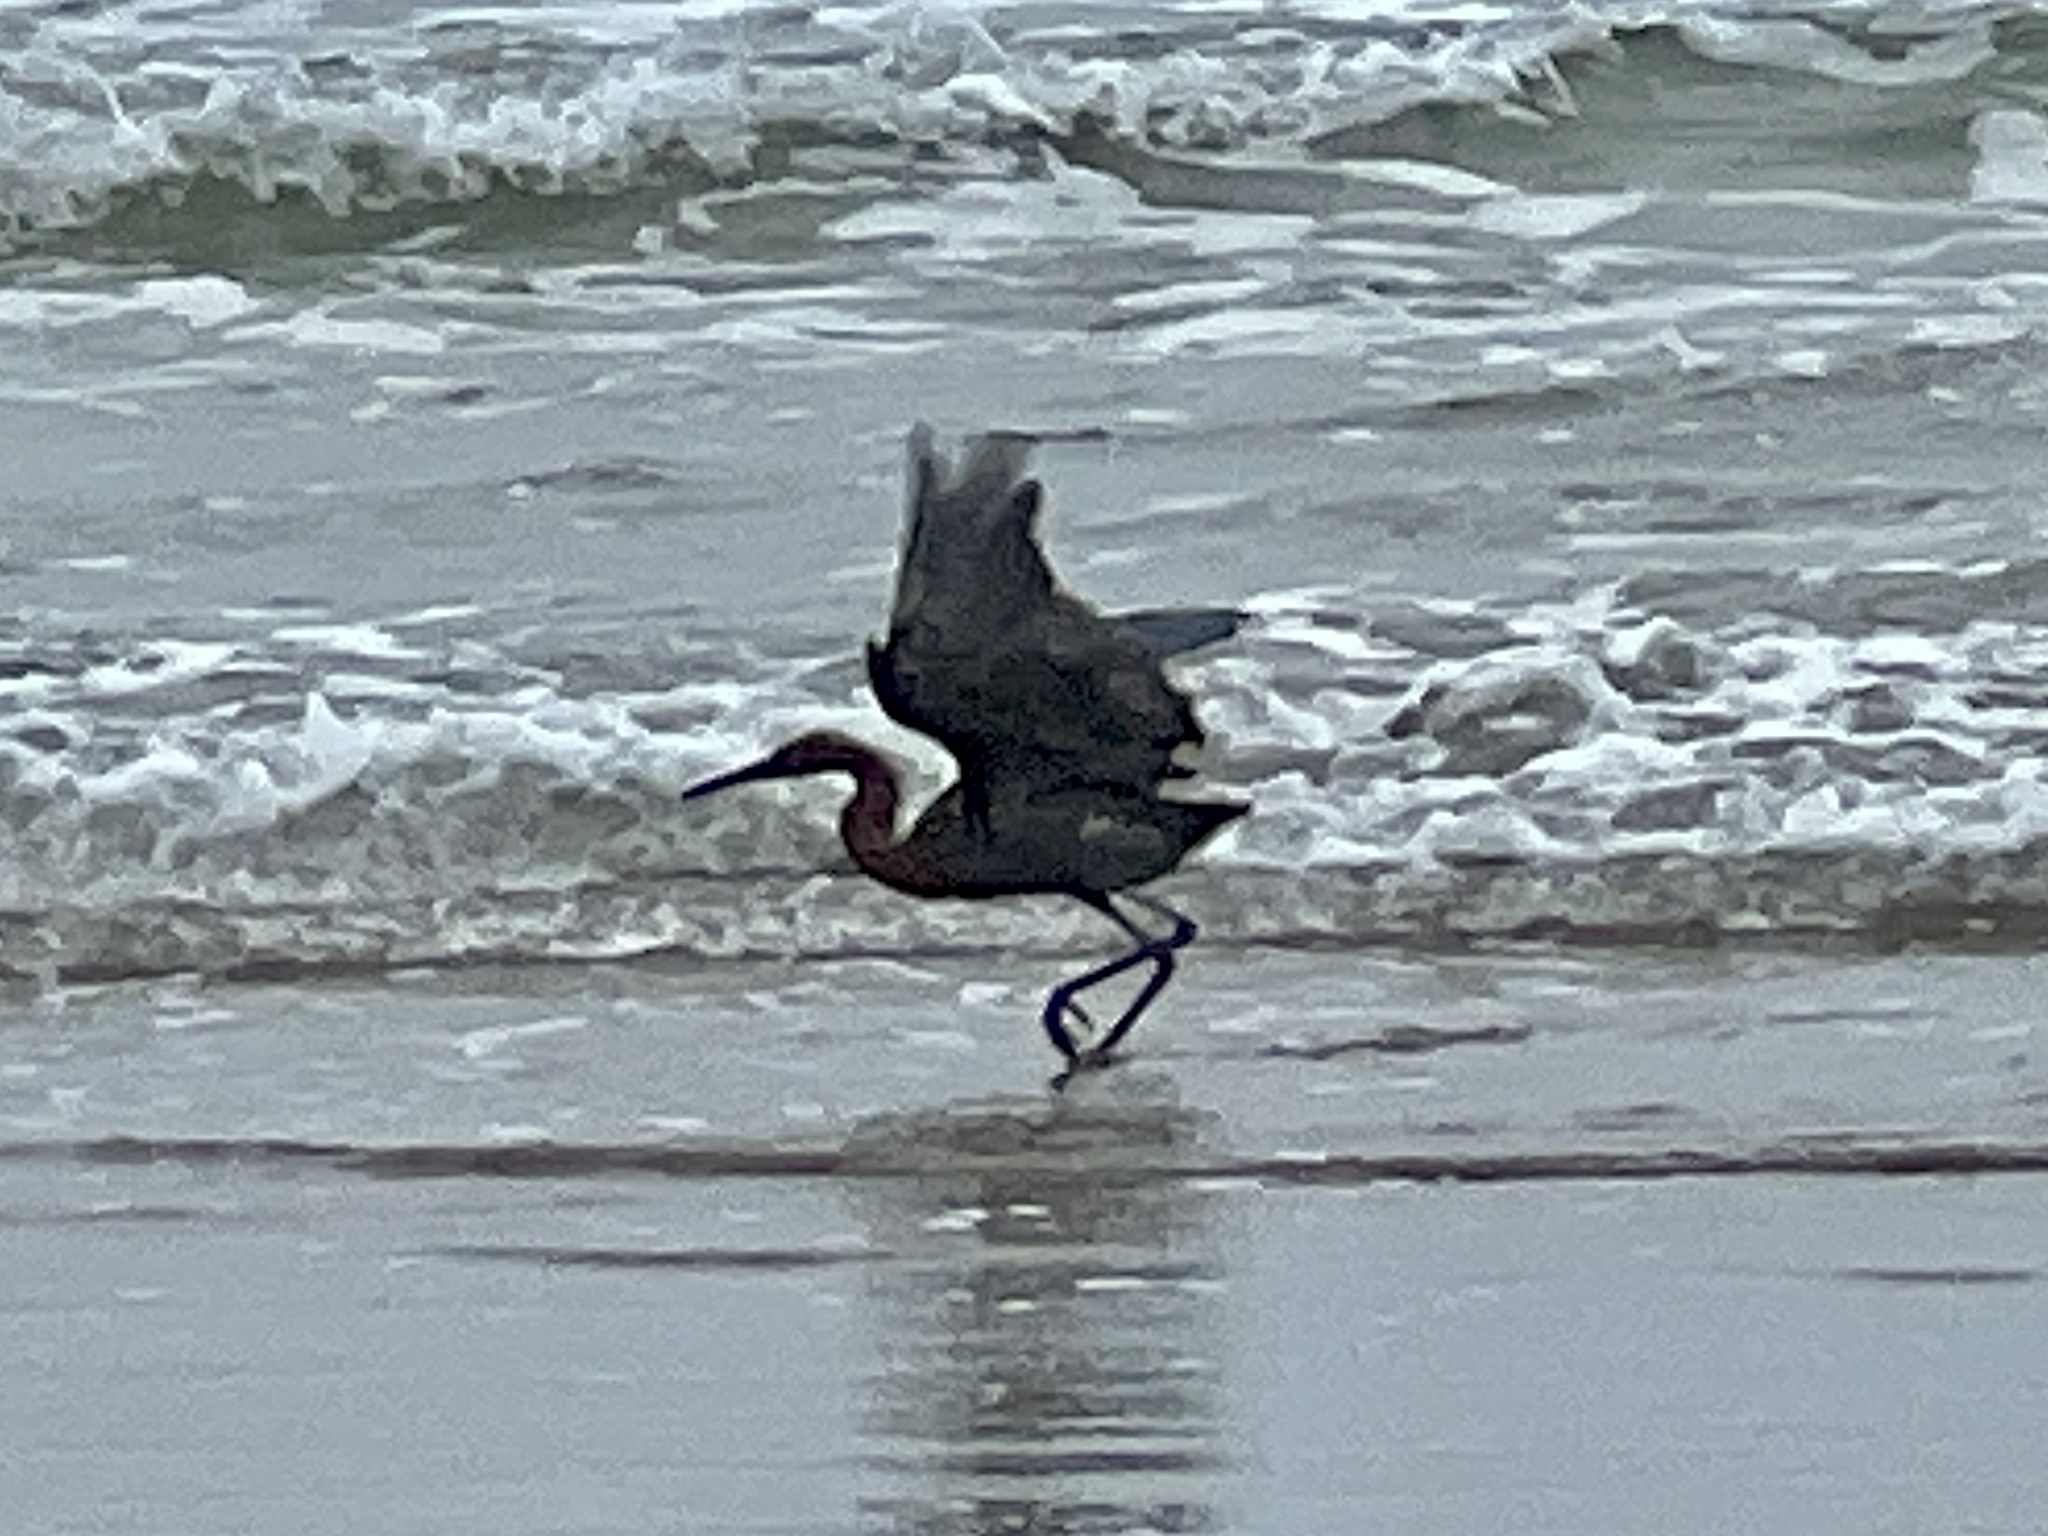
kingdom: Animalia
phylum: Chordata
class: Aves
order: Pelecaniformes
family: Ardeidae
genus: Egretta
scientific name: Egretta rufescens
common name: Reddish egret
